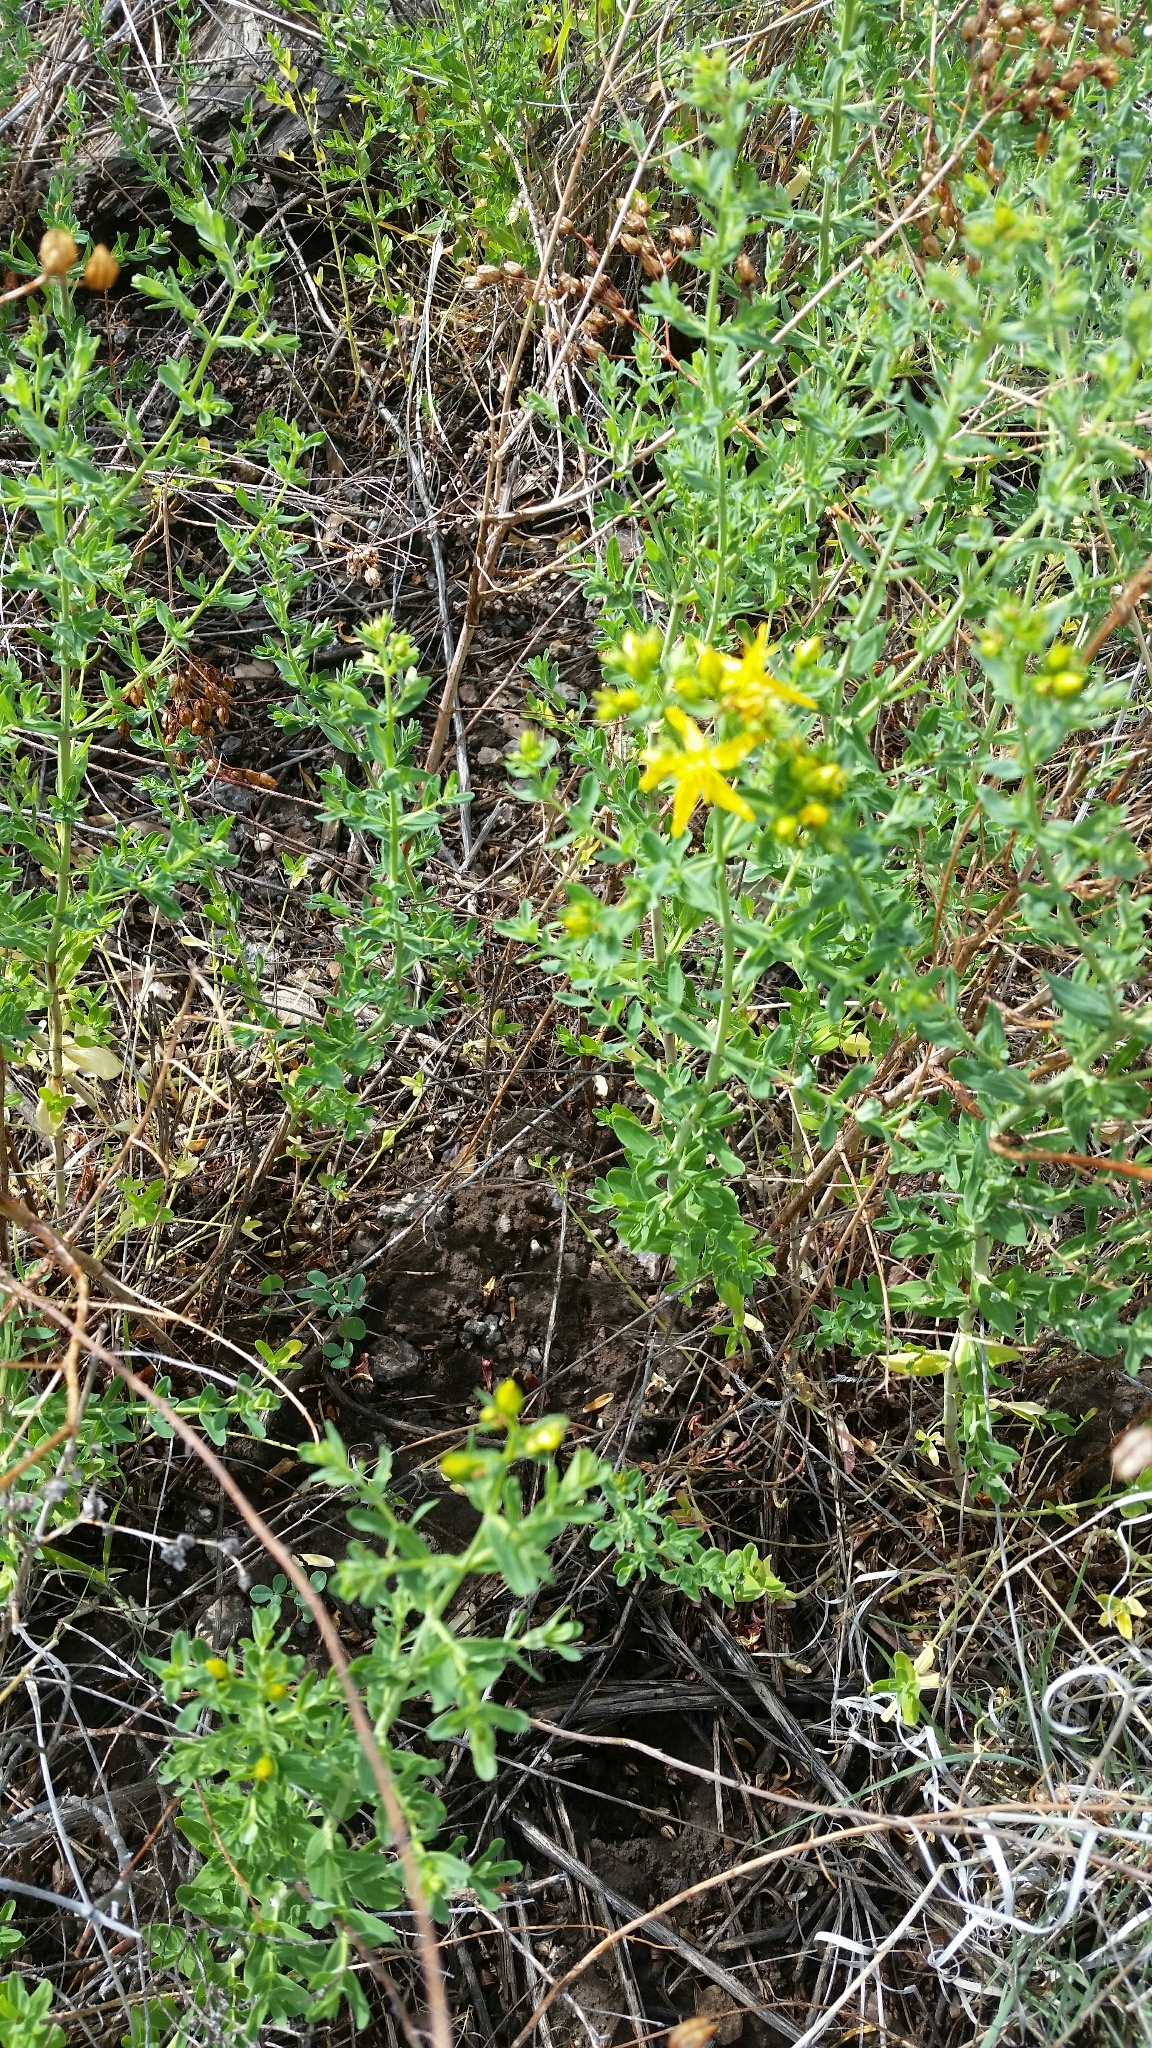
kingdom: Plantae
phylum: Tracheophyta
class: Magnoliopsida
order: Malpighiales
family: Hypericaceae
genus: Hypericum
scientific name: Hypericum perforatum
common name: Common st. johnswort
